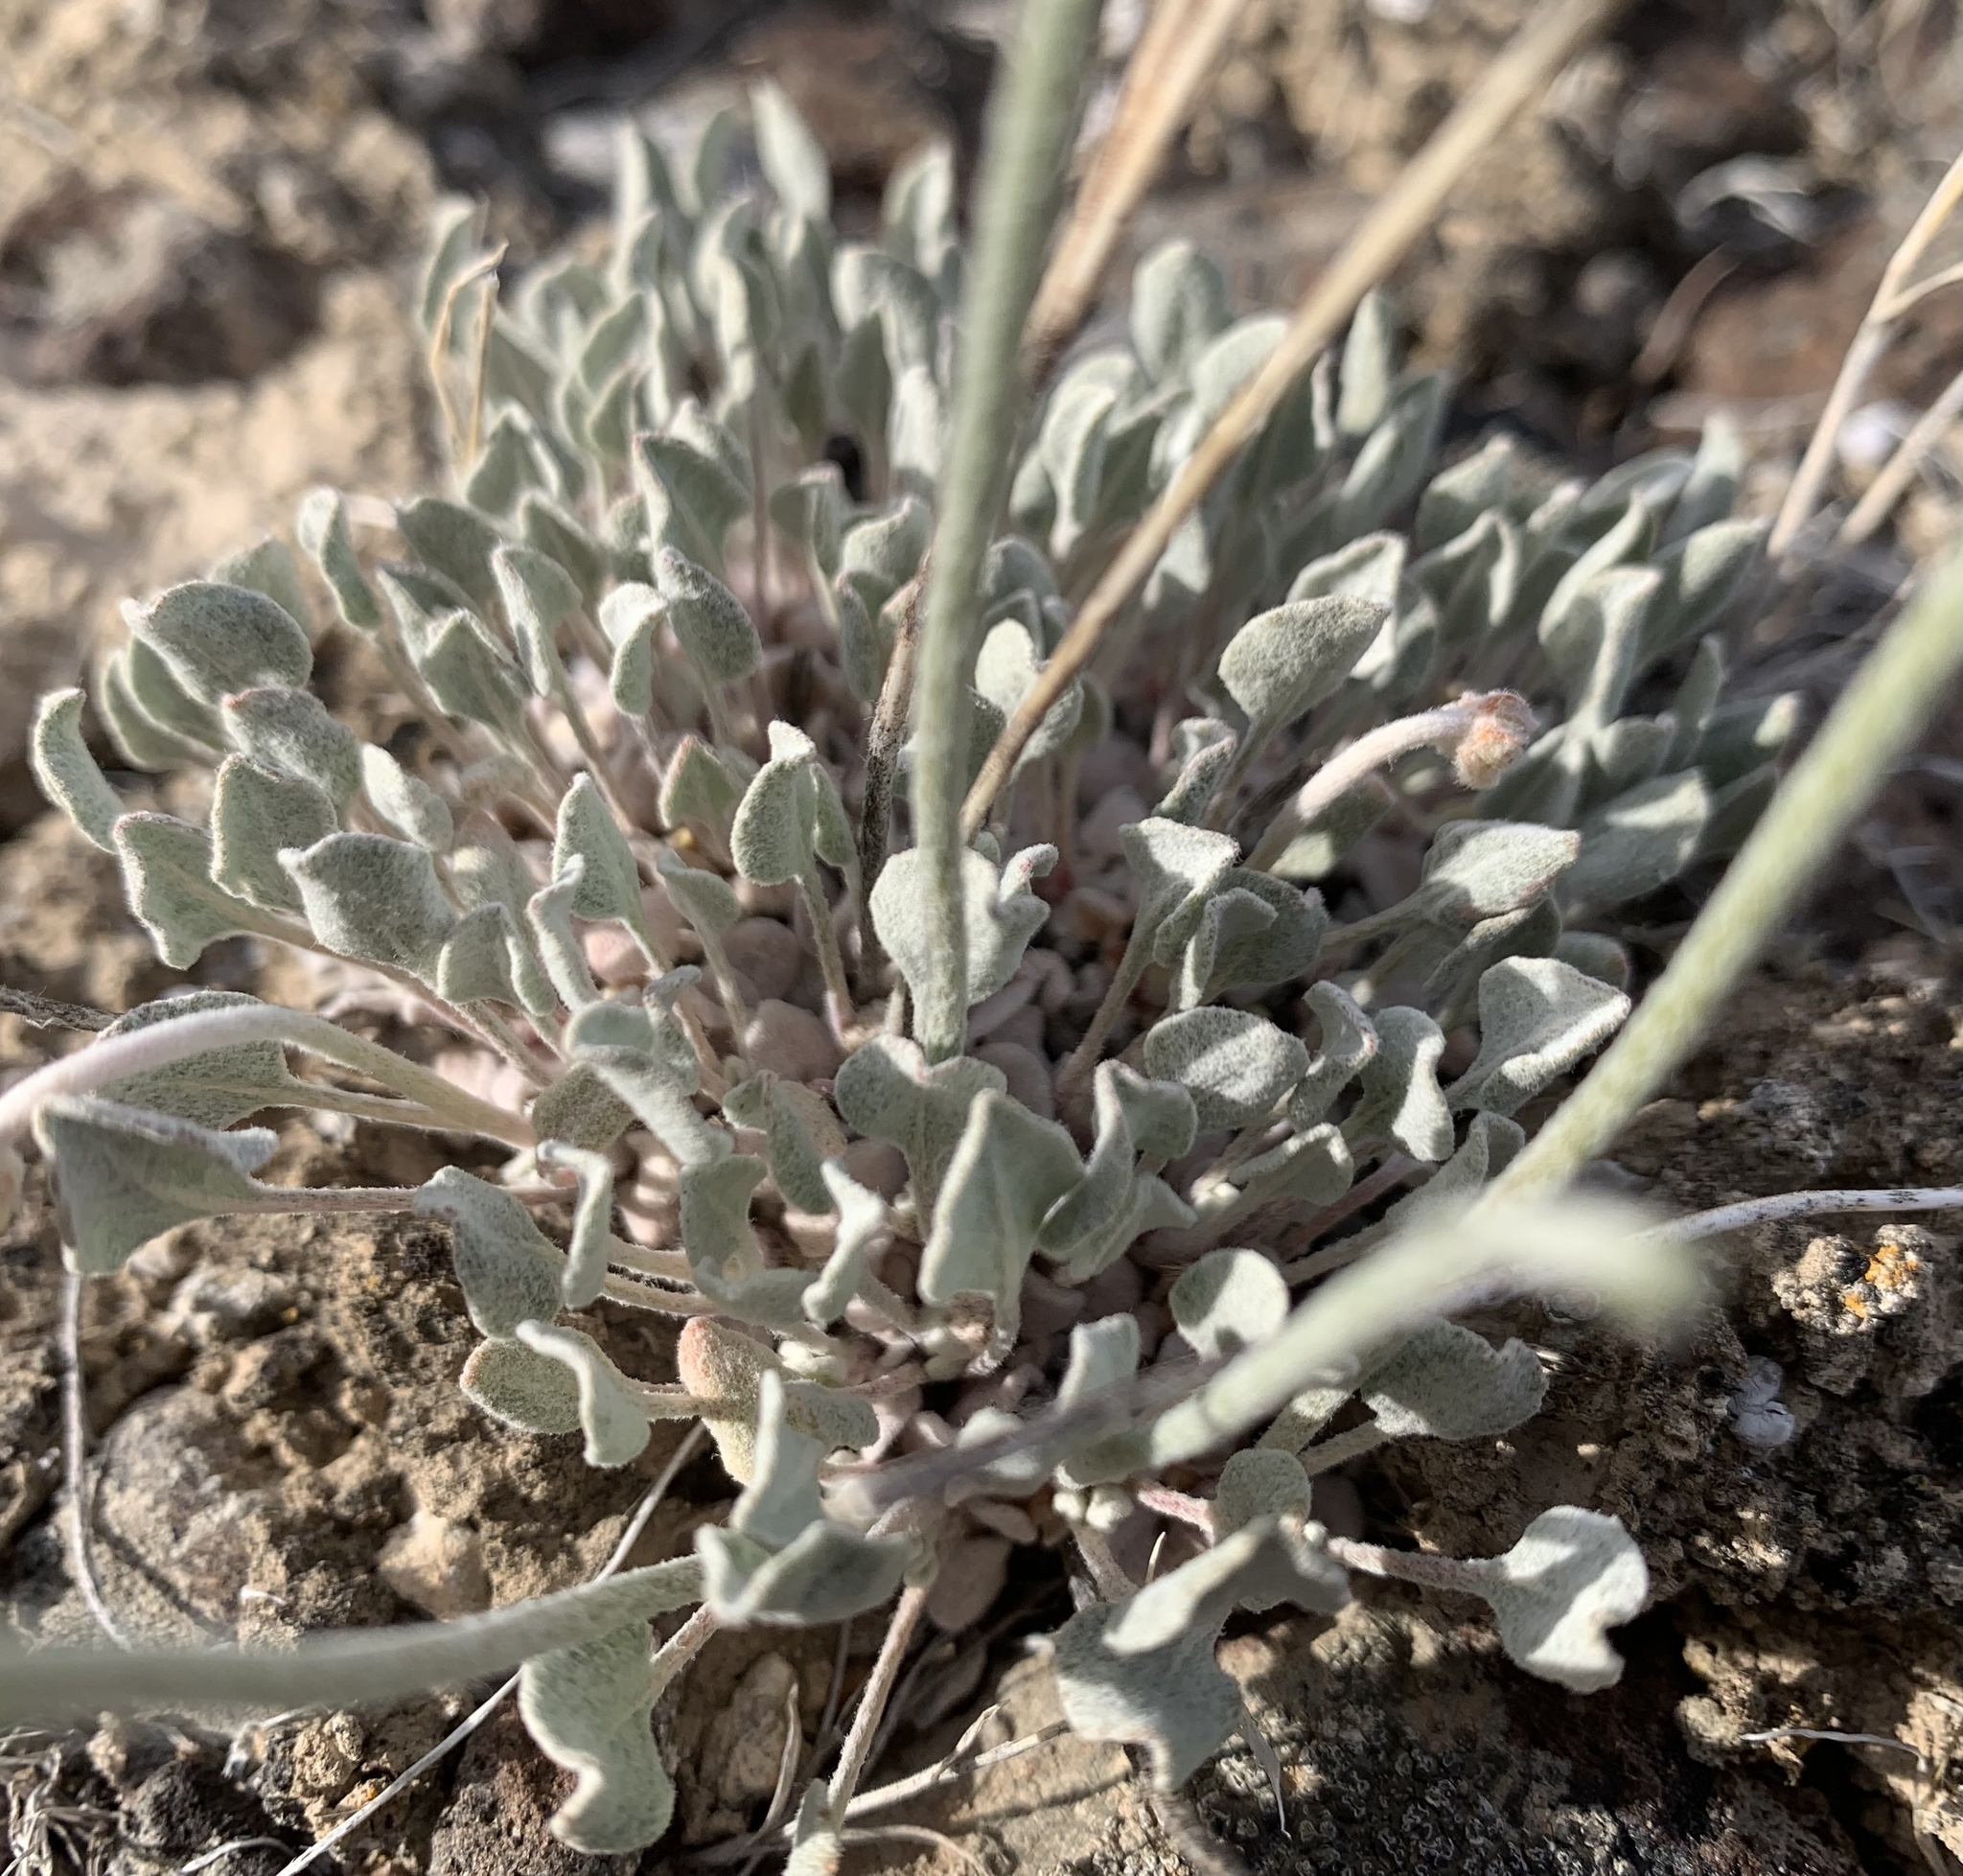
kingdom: Plantae
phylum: Tracheophyta
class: Magnoliopsida
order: Caryophyllales
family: Polygonaceae
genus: Eriogonum
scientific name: Eriogonum ovalifolium
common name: Cushion buckwheat
